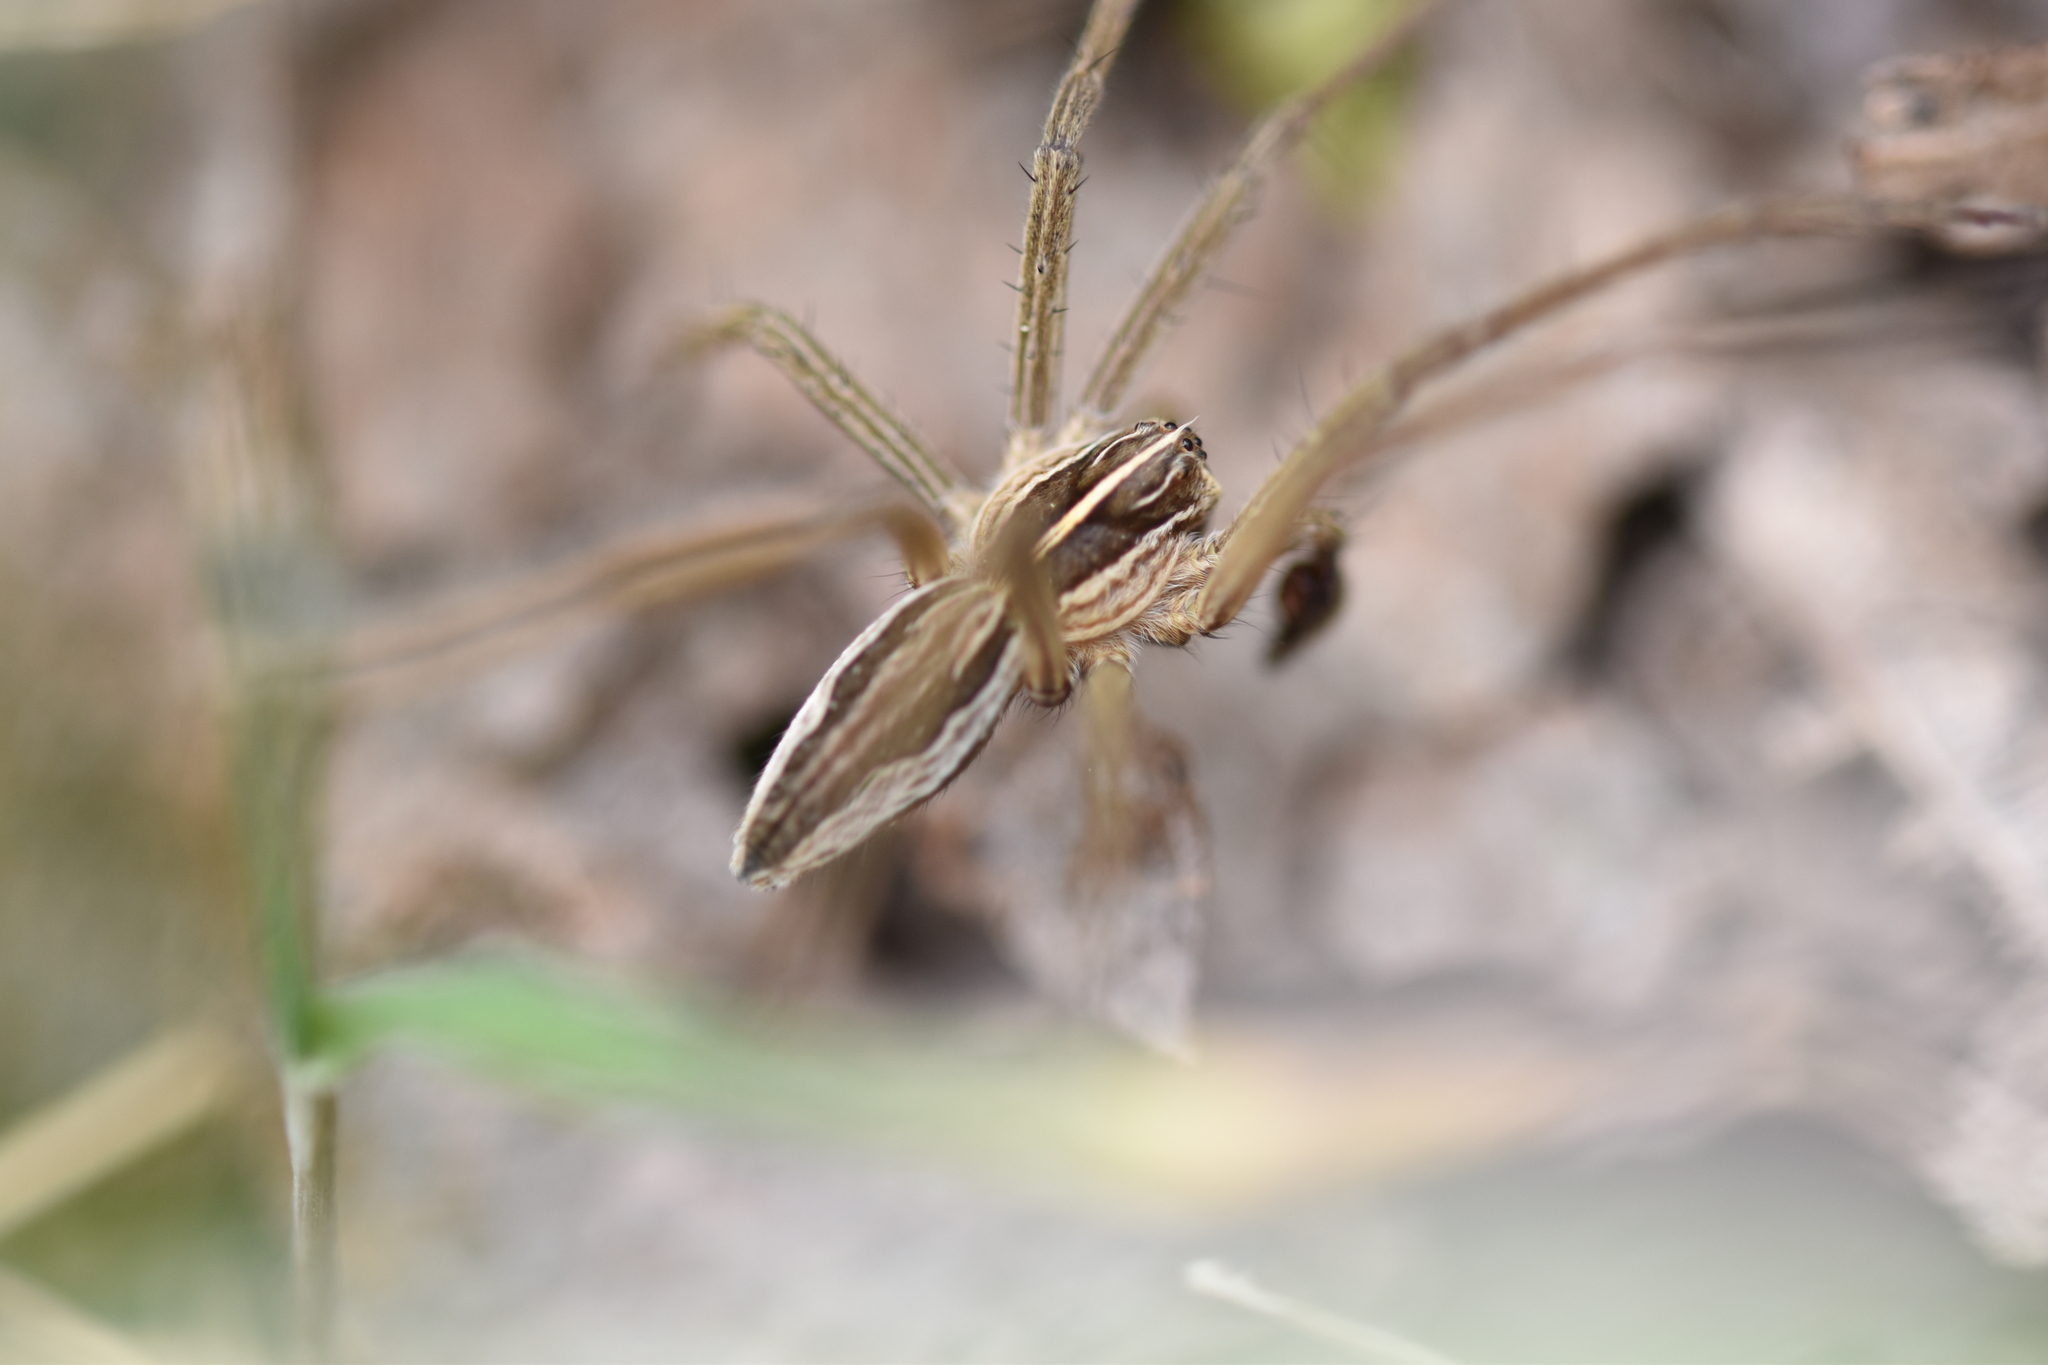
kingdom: Animalia
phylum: Arthropoda
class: Arachnida
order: Araneae
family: Pisauridae
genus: Pisaura
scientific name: Pisaura mirabilis
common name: Tent spider
